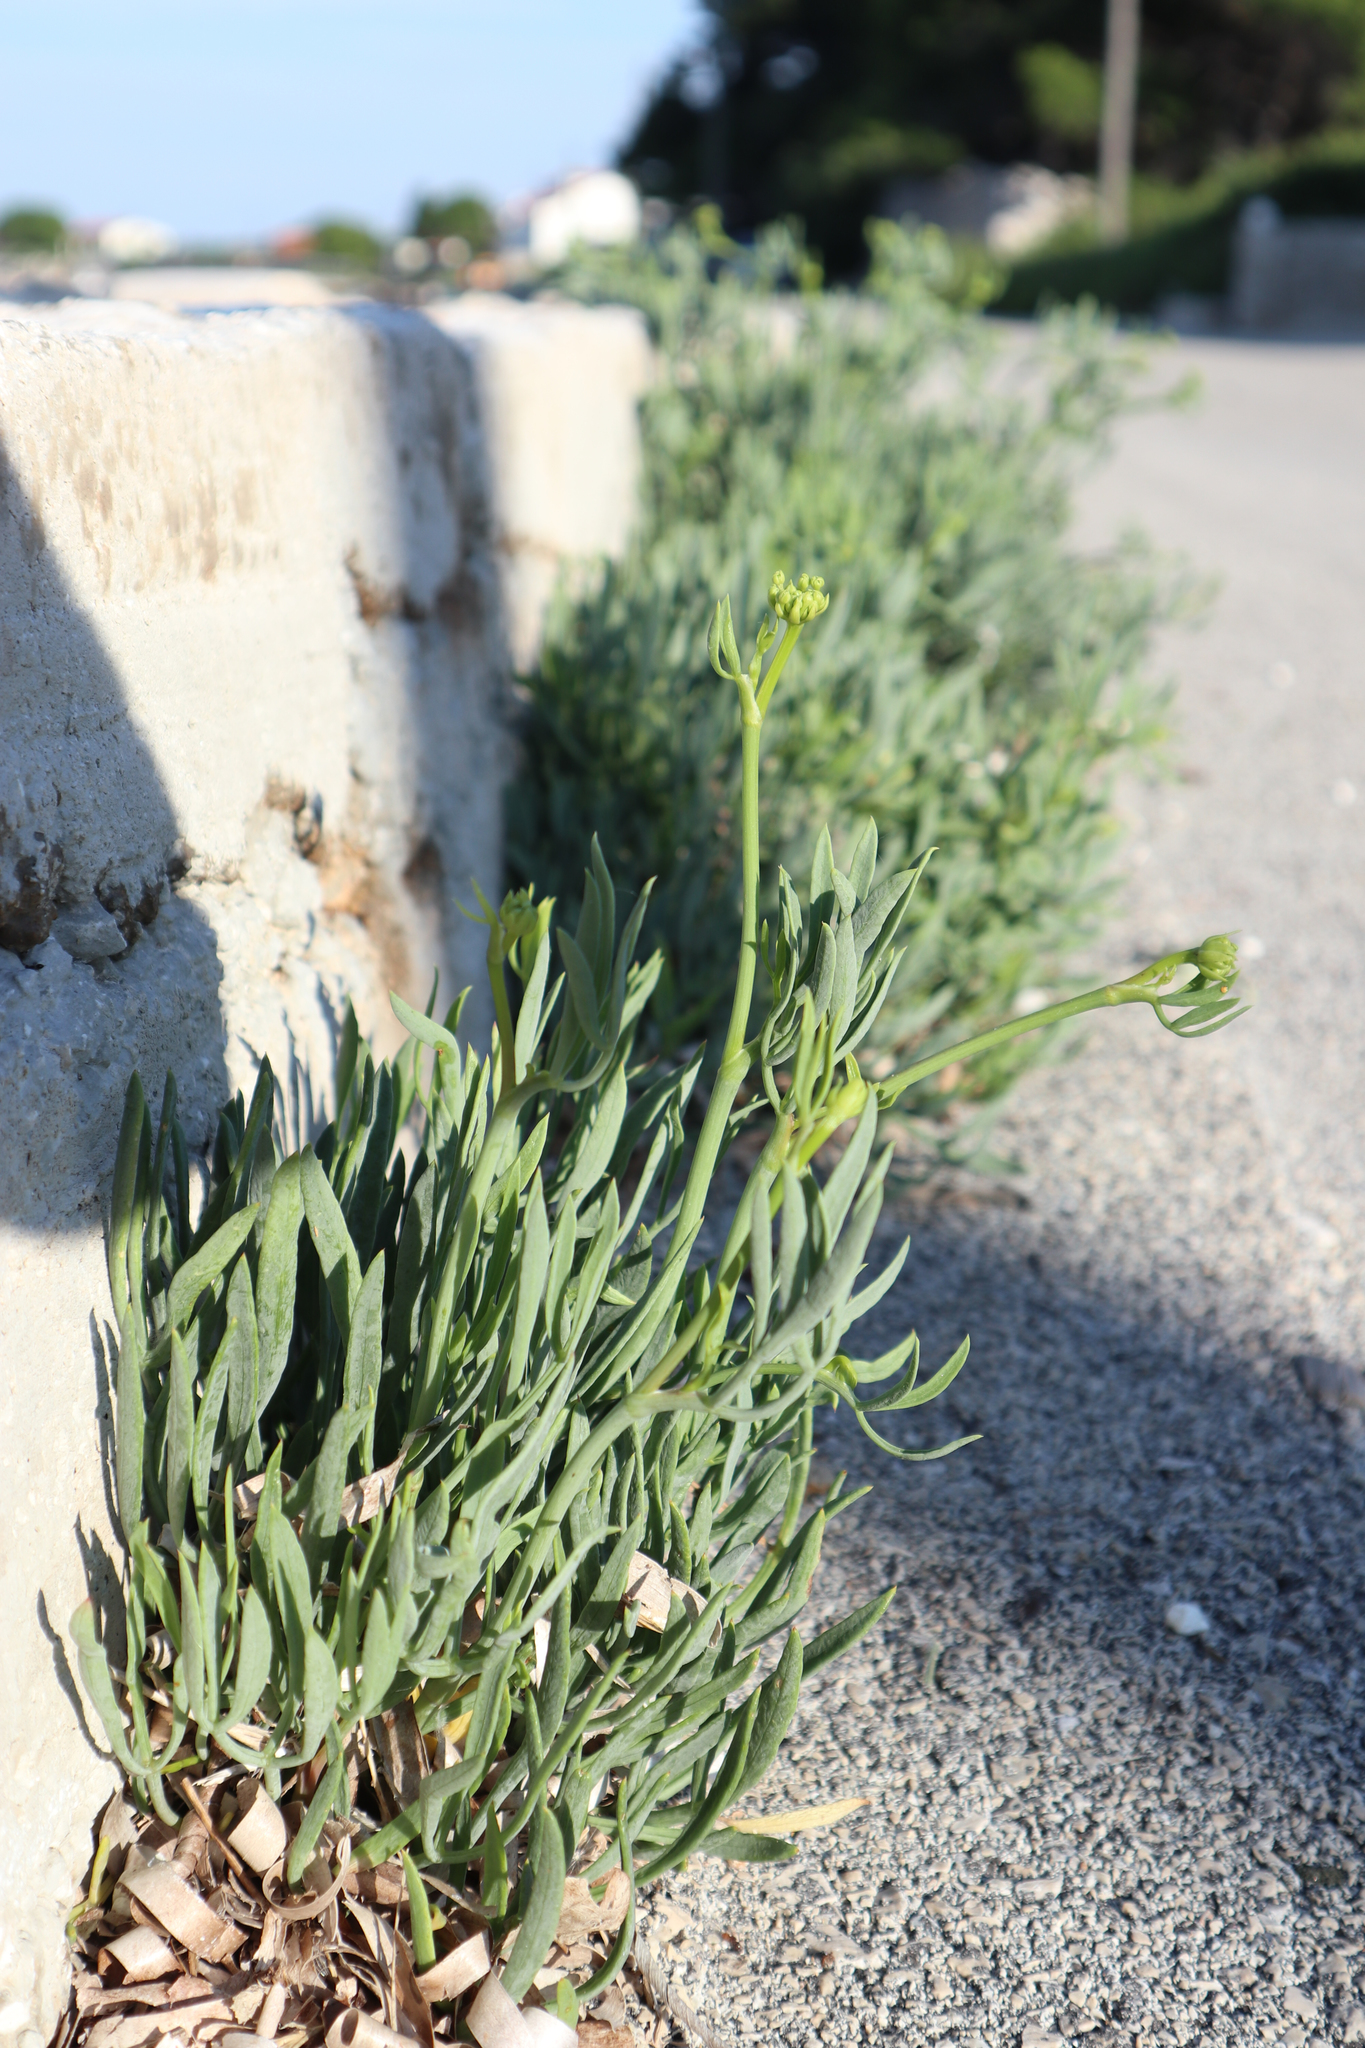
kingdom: Plantae
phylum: Tracheophyta
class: Magnoliopsida
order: Apiales
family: Apiaceae
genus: Crithmum
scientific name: Crithmum maritimum
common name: Rock samphire
